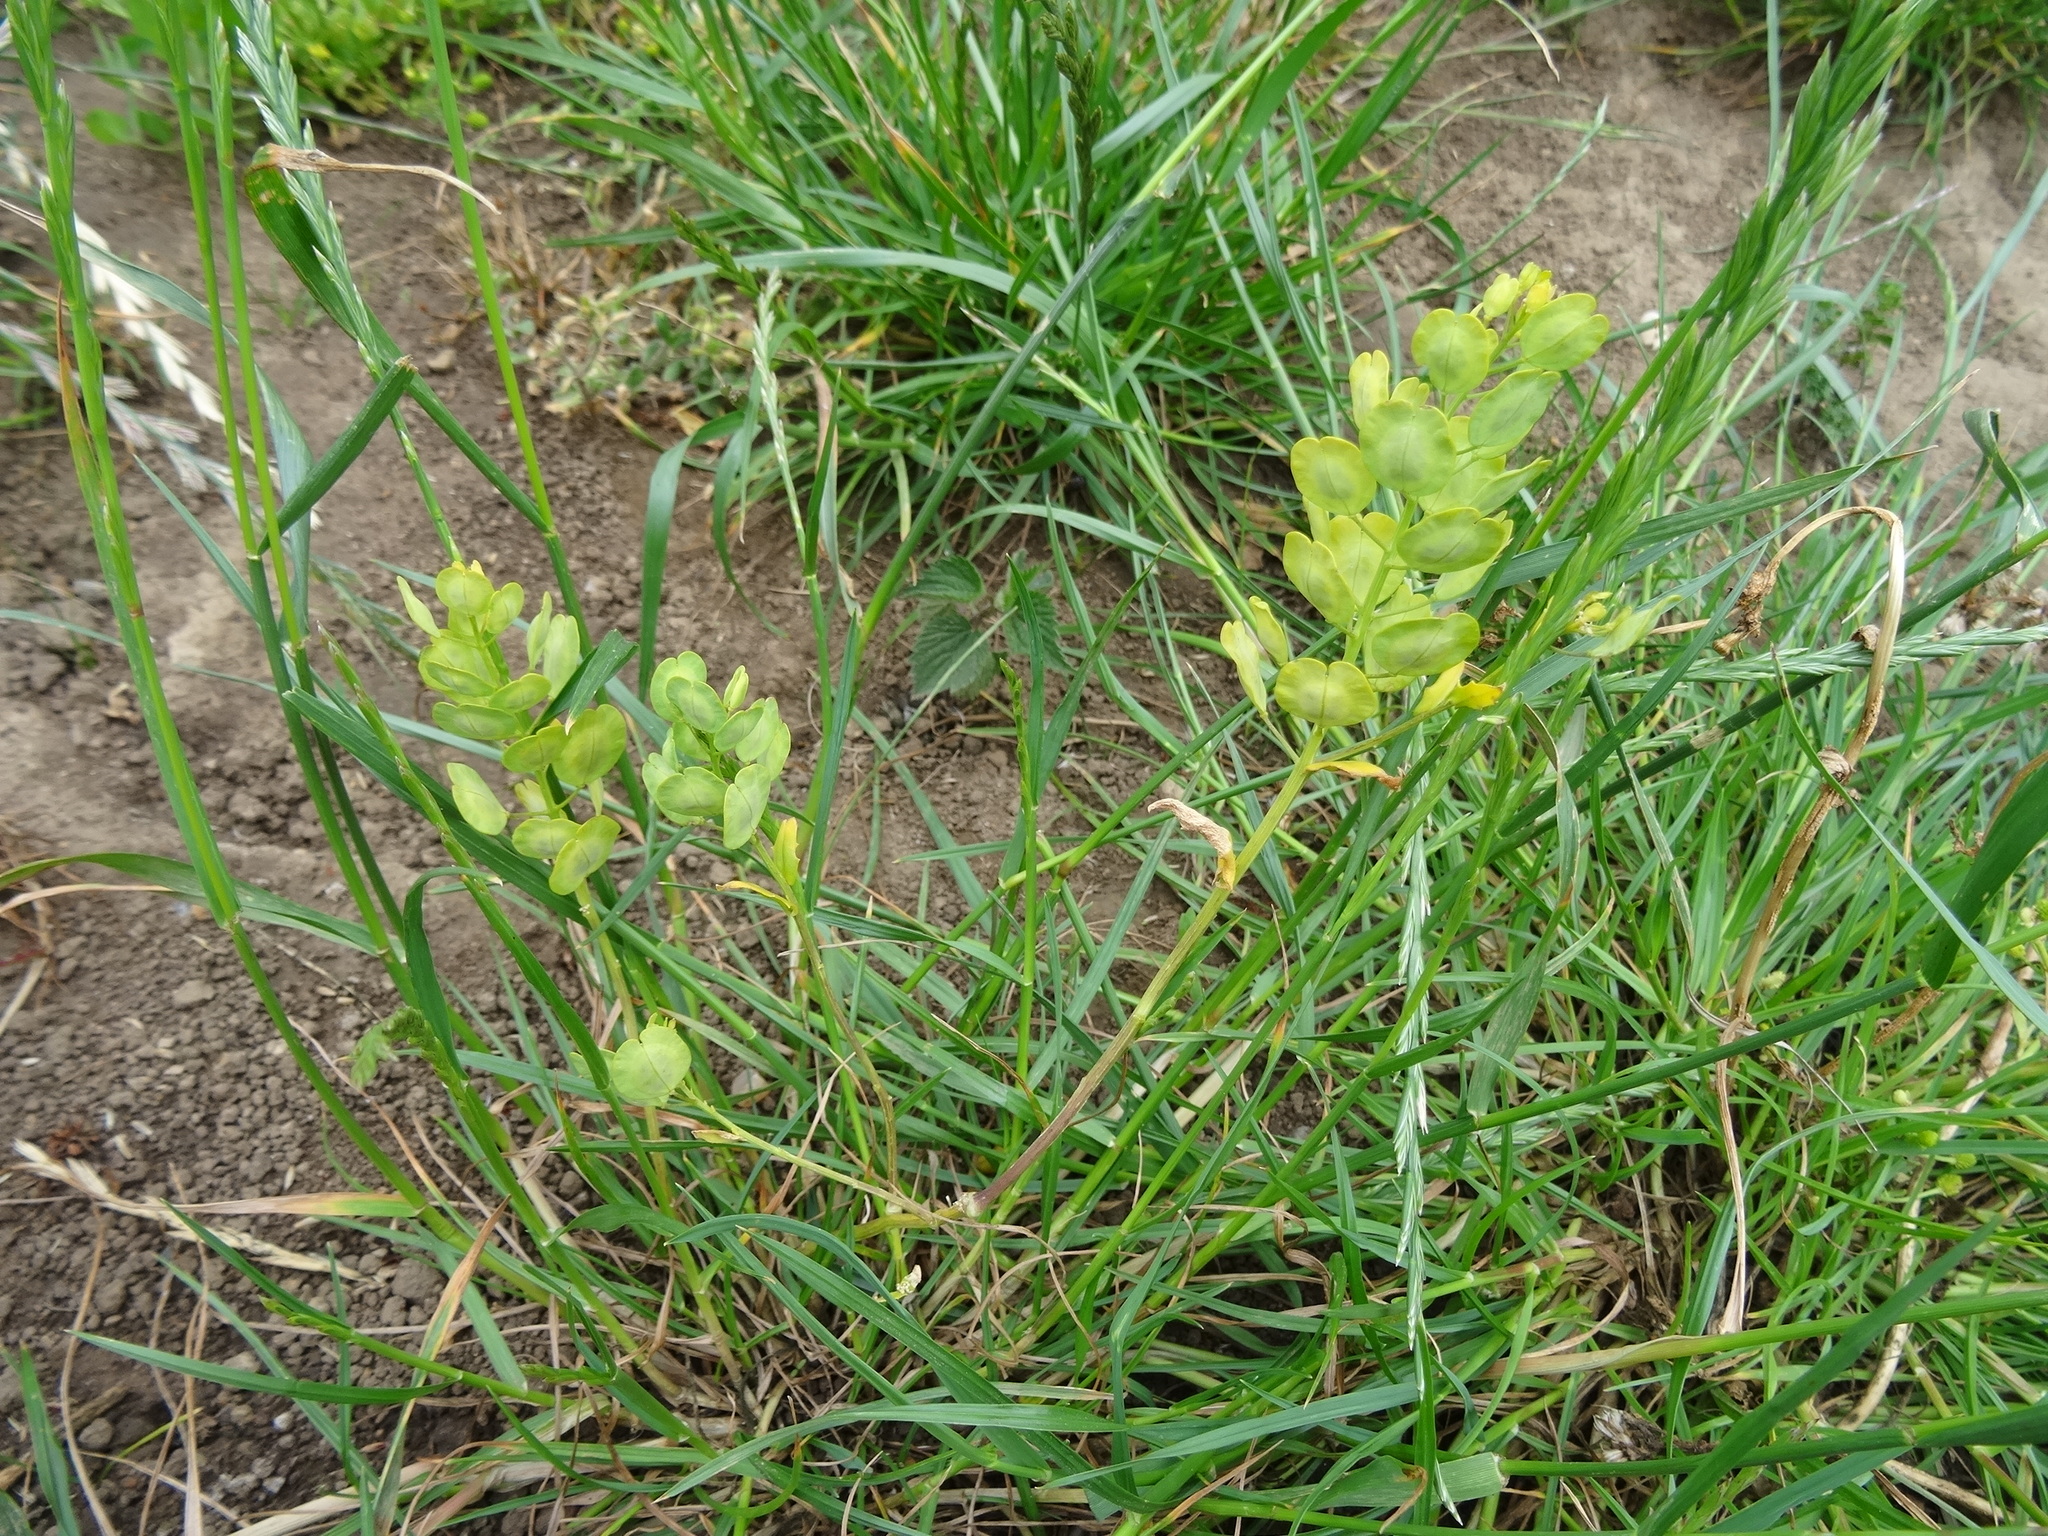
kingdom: Plantae
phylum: Tracheophyta
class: Magnoliopsida
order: Brassicales
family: Brassicaceae
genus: Thlaspi
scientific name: Thlaspi arvense
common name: Field pennycress
